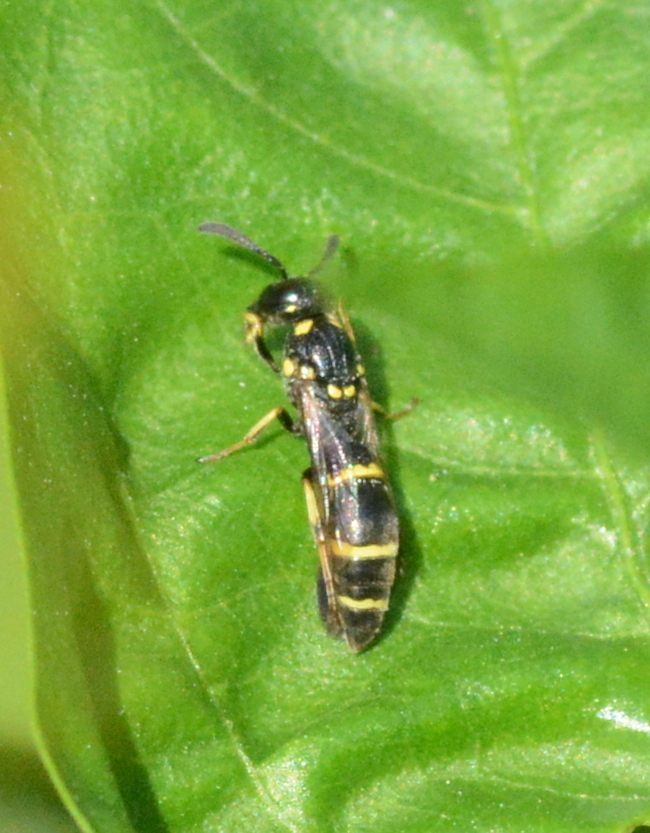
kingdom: Animalia
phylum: Arthropoda
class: Insecta
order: Hymenoptera
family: Eumenidae
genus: Symmorphus
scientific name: Symmorphus
